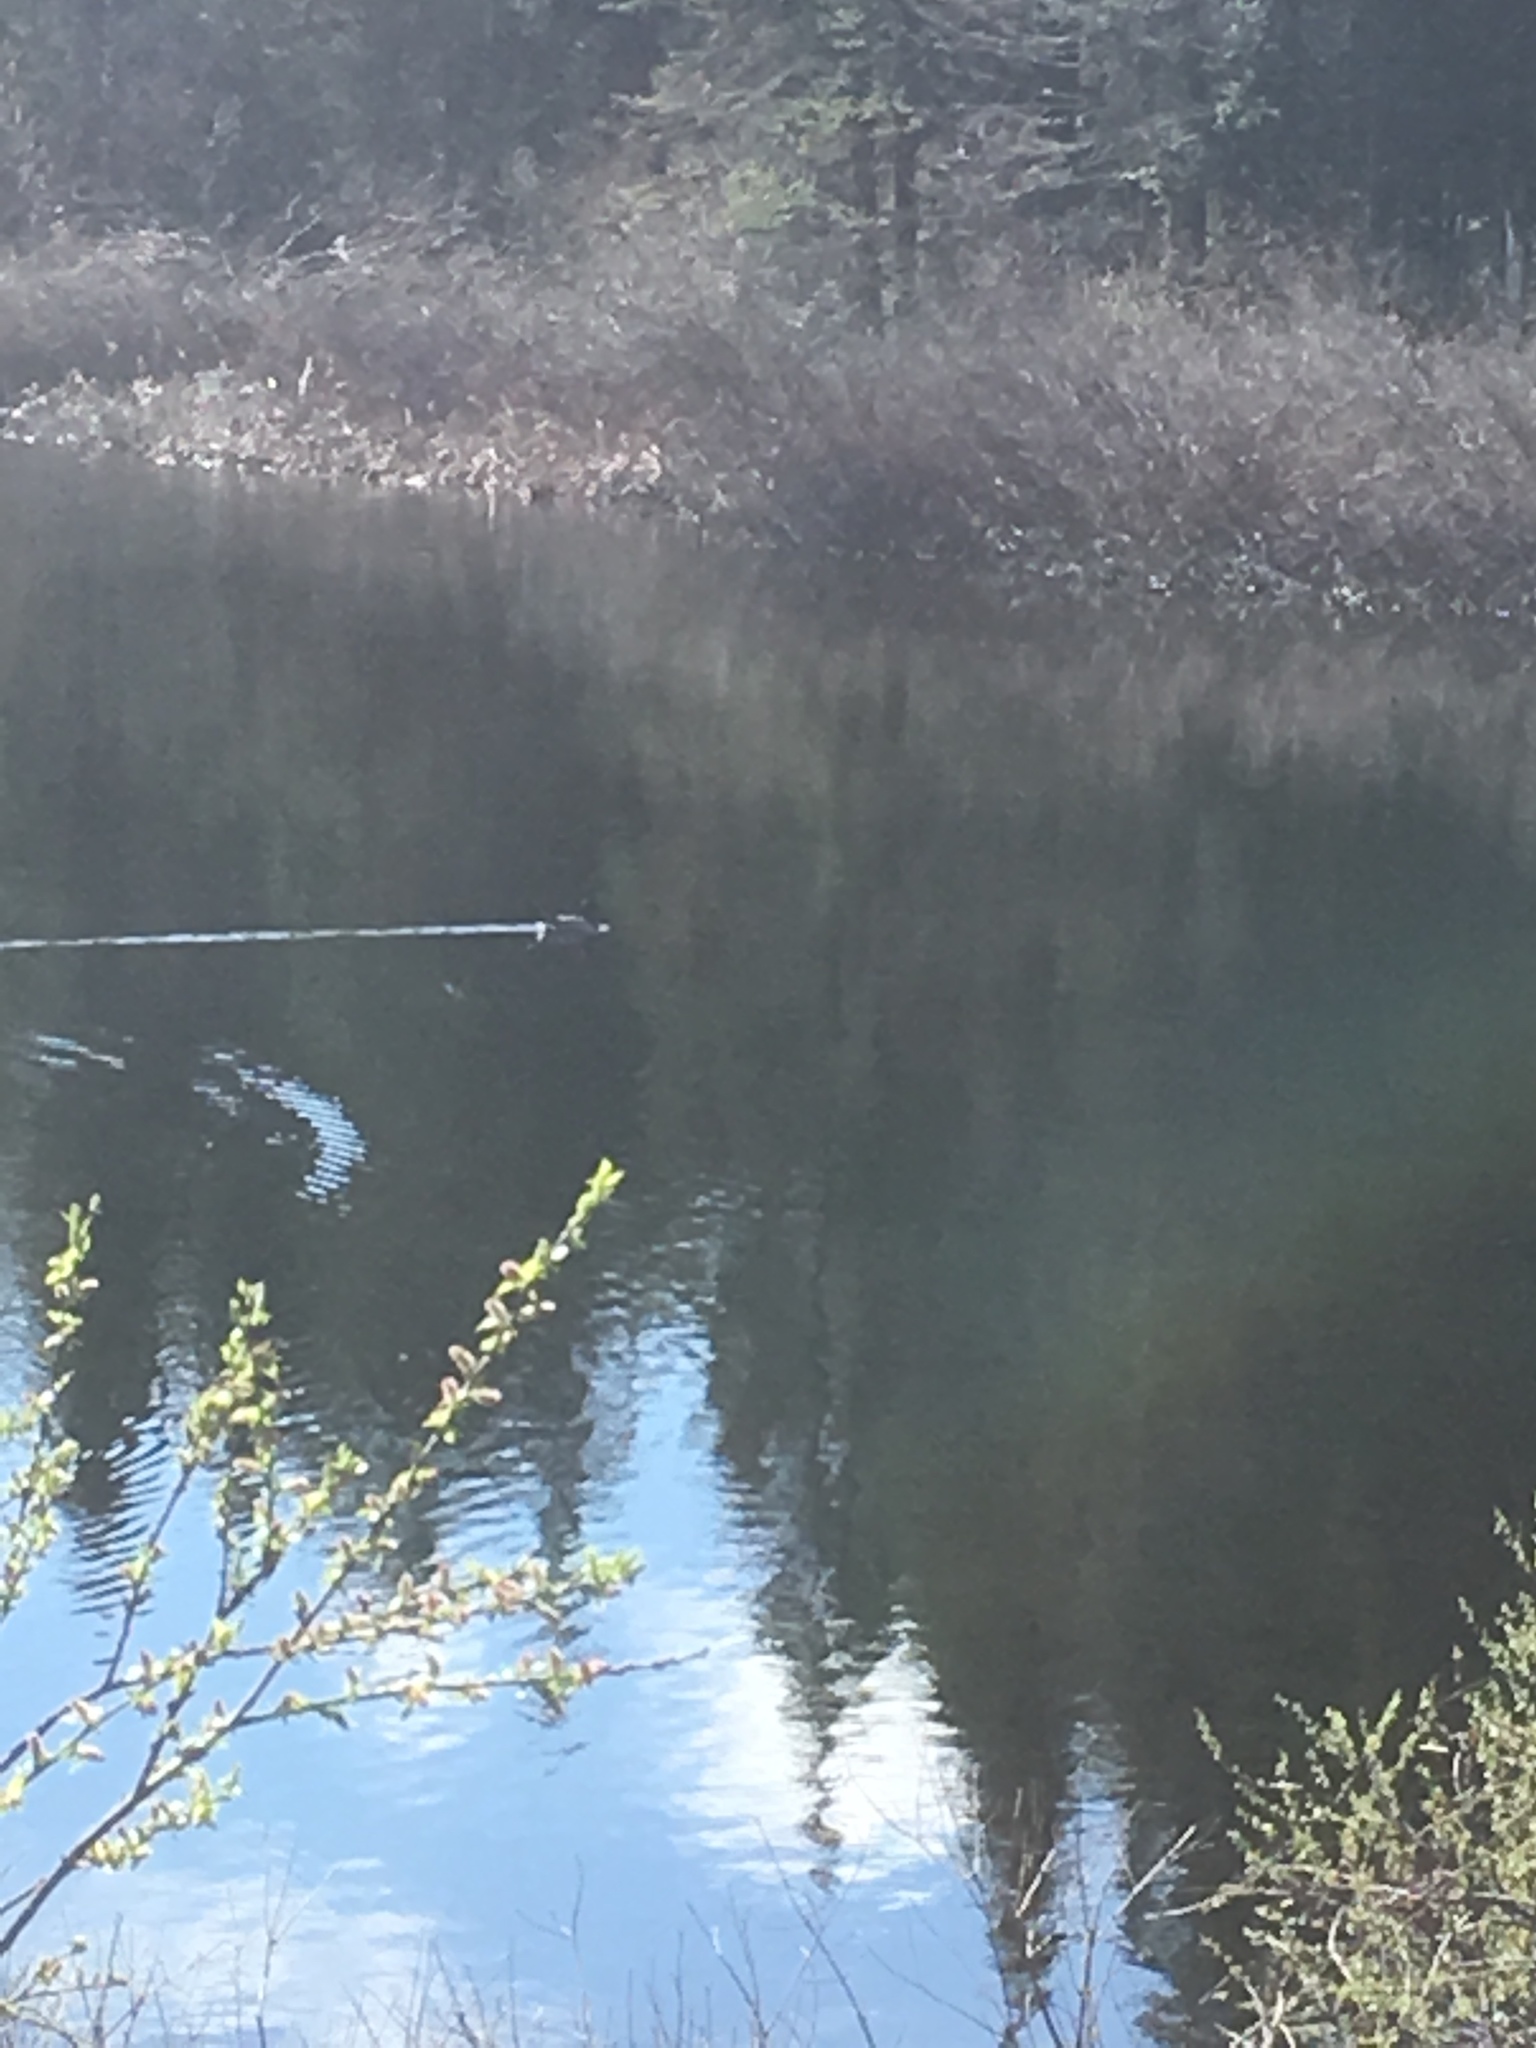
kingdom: Animalia
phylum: Chordata
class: Aves
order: Anseriformes
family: Anatidae
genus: Anas
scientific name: Anas platyrhynchos
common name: Mallard
